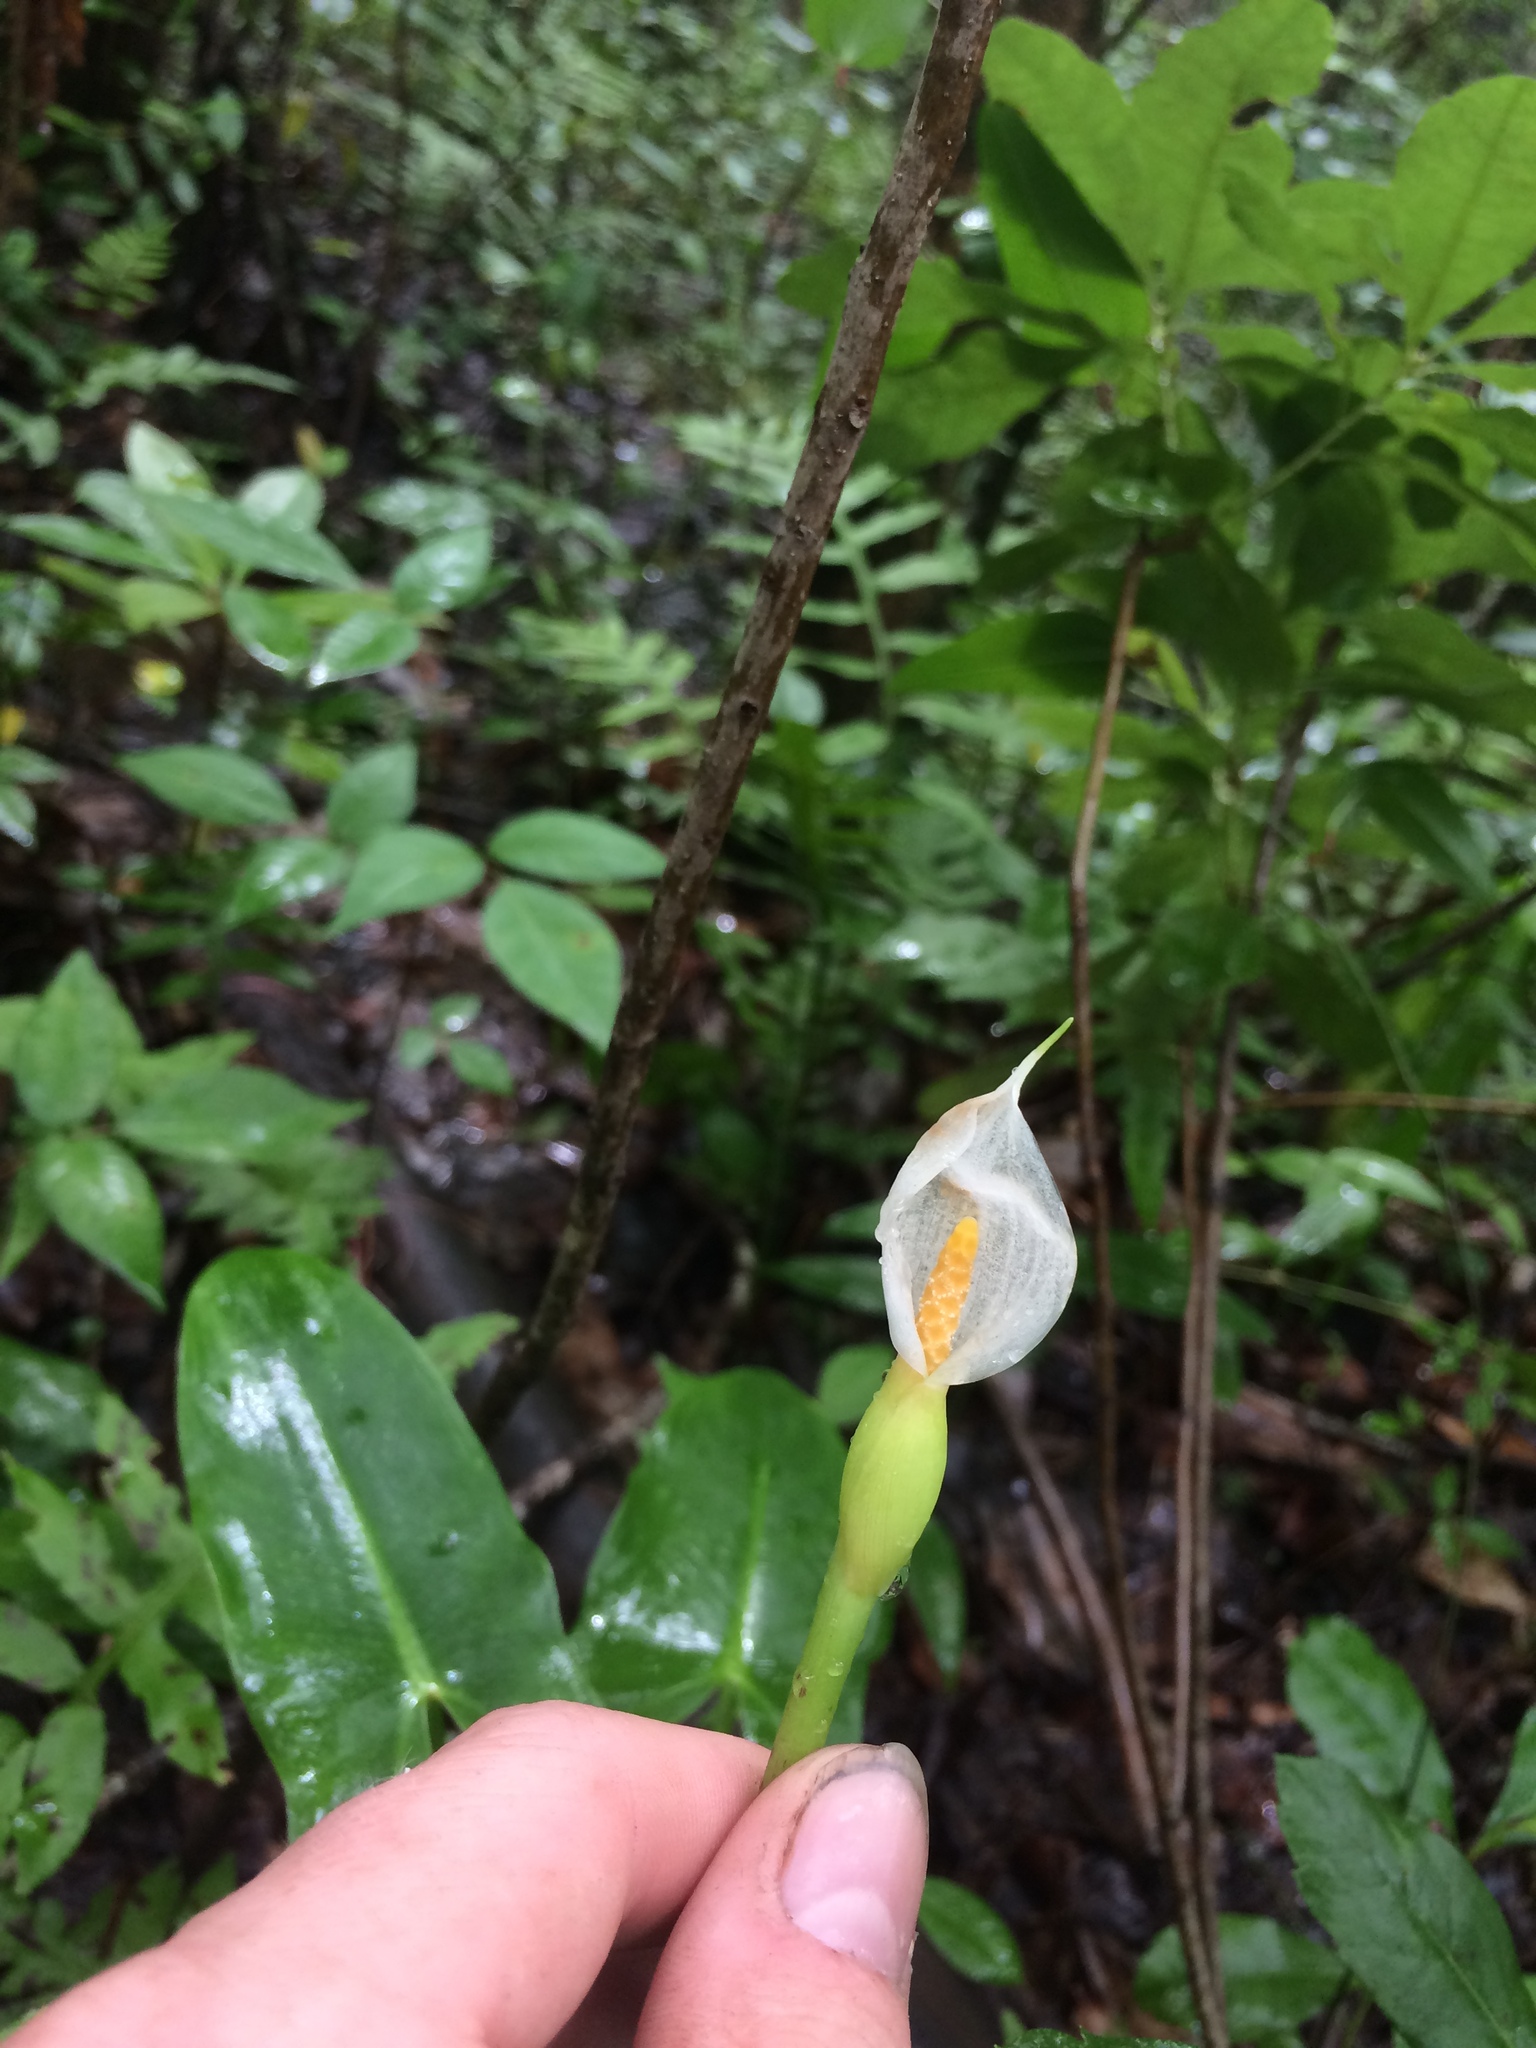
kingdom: Plantae
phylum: Tracheophyta
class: Liliopsida
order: Alismatales
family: Araceae
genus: Peltandra
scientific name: Peltandra sagittifolia
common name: White arrow arum
